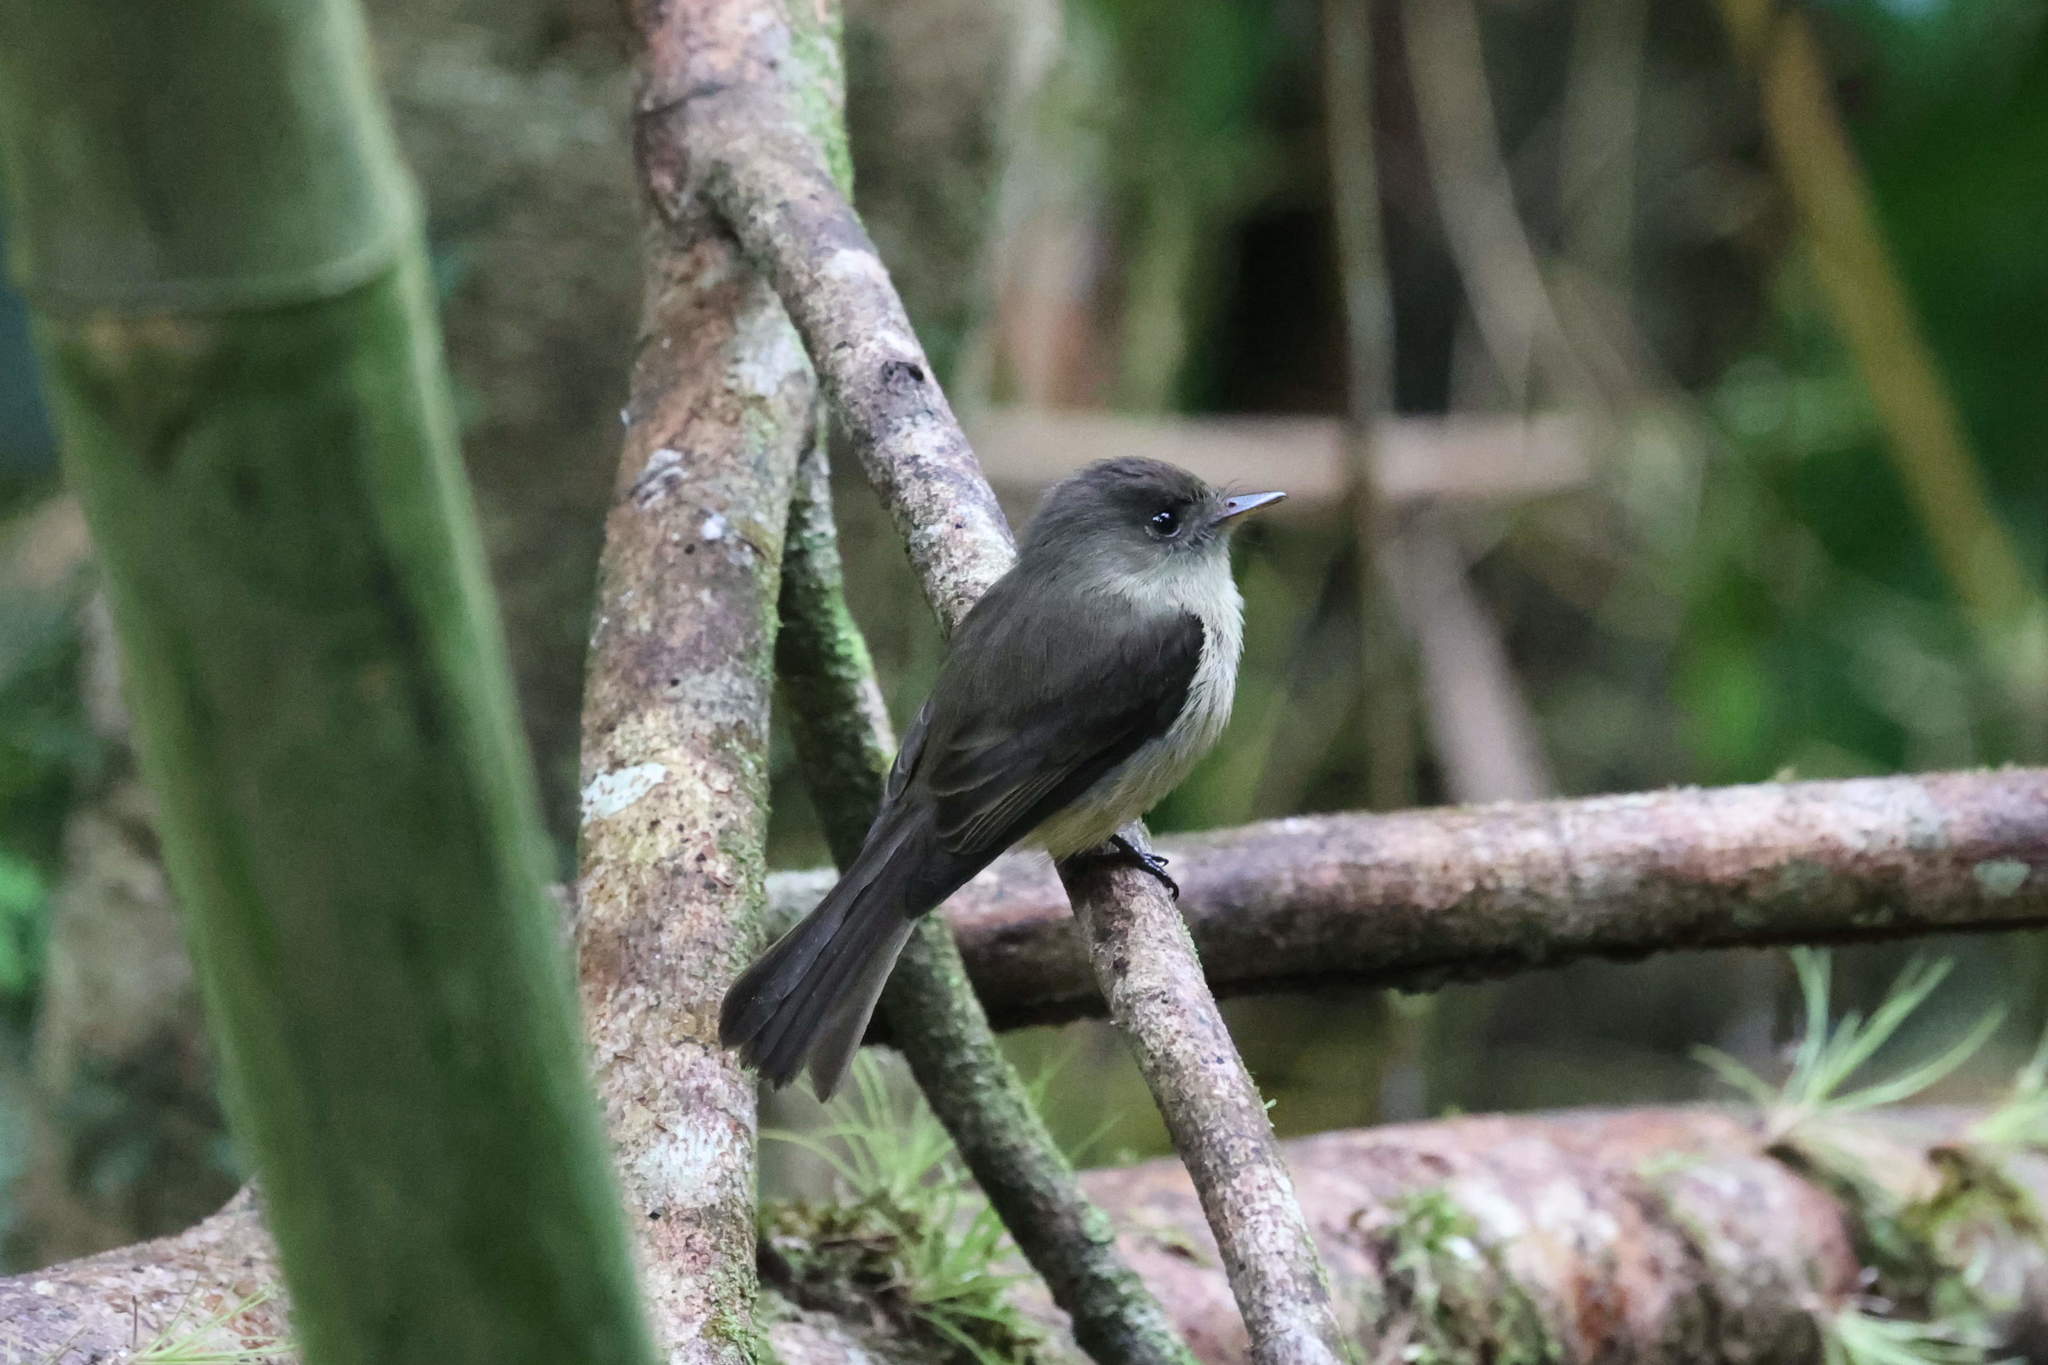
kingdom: Animalia
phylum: Chordata
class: Aves
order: Passeriformes
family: Tyrannidae
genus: Contopus
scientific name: Contopus latirostris
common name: Lesser antillean pewee
